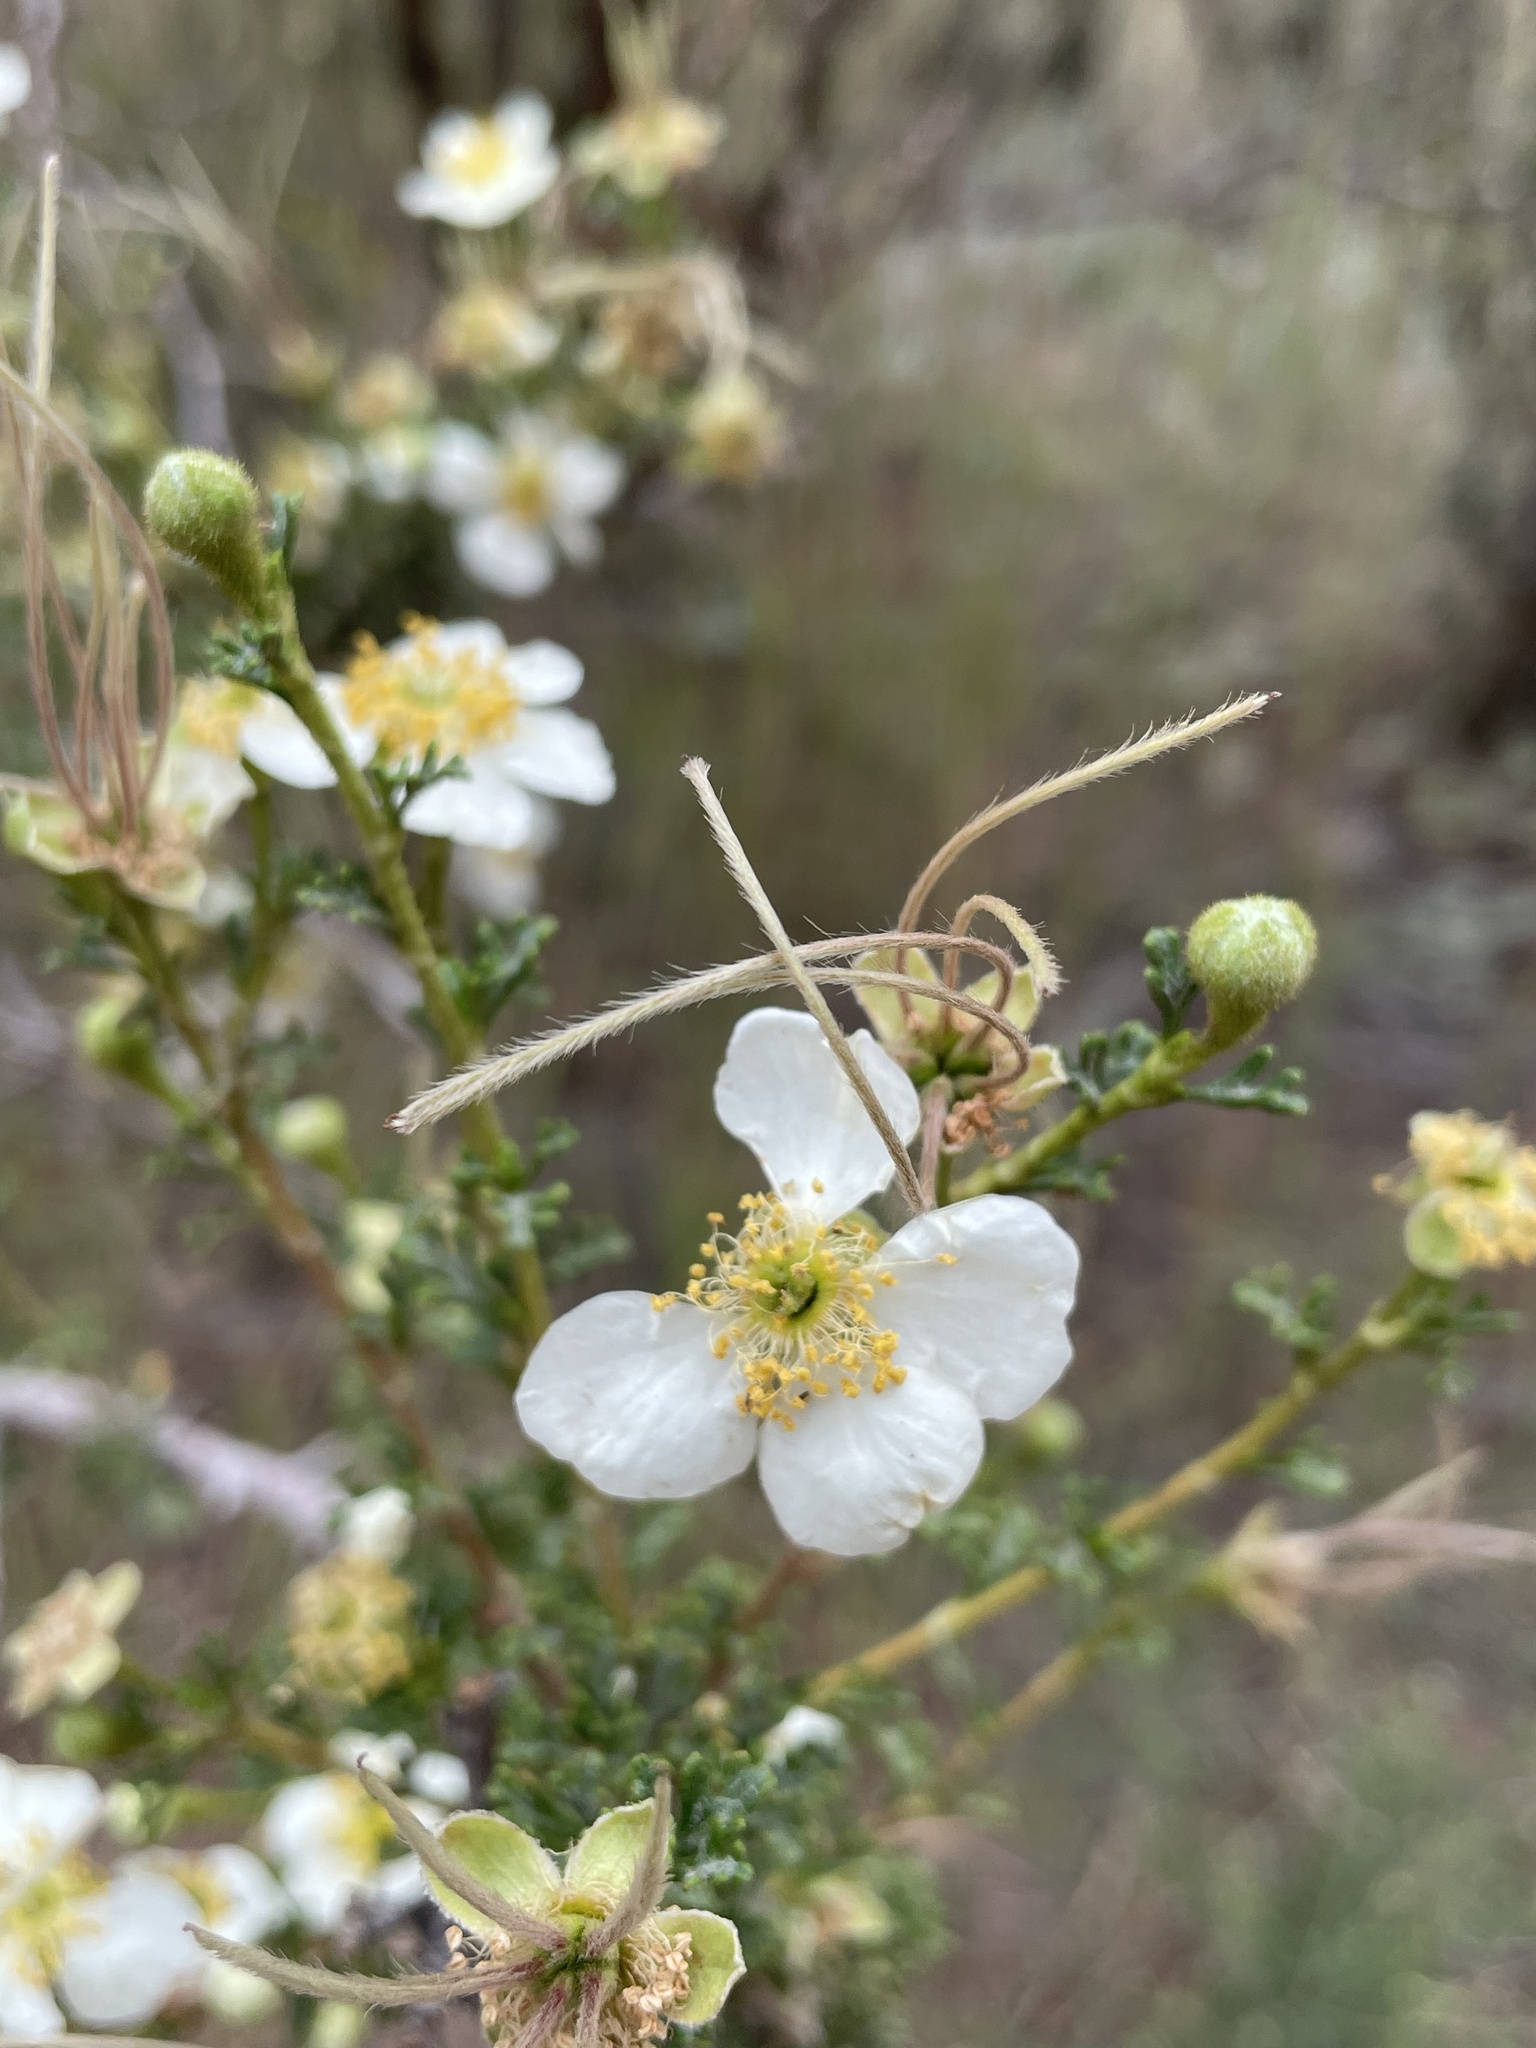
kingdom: Plantae
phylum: Tracheophyta
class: Magnoliopsida
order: Rosales
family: Rosaceae
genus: Purshia
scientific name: Purshia stansburiana
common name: Stansbury's cliffrose
